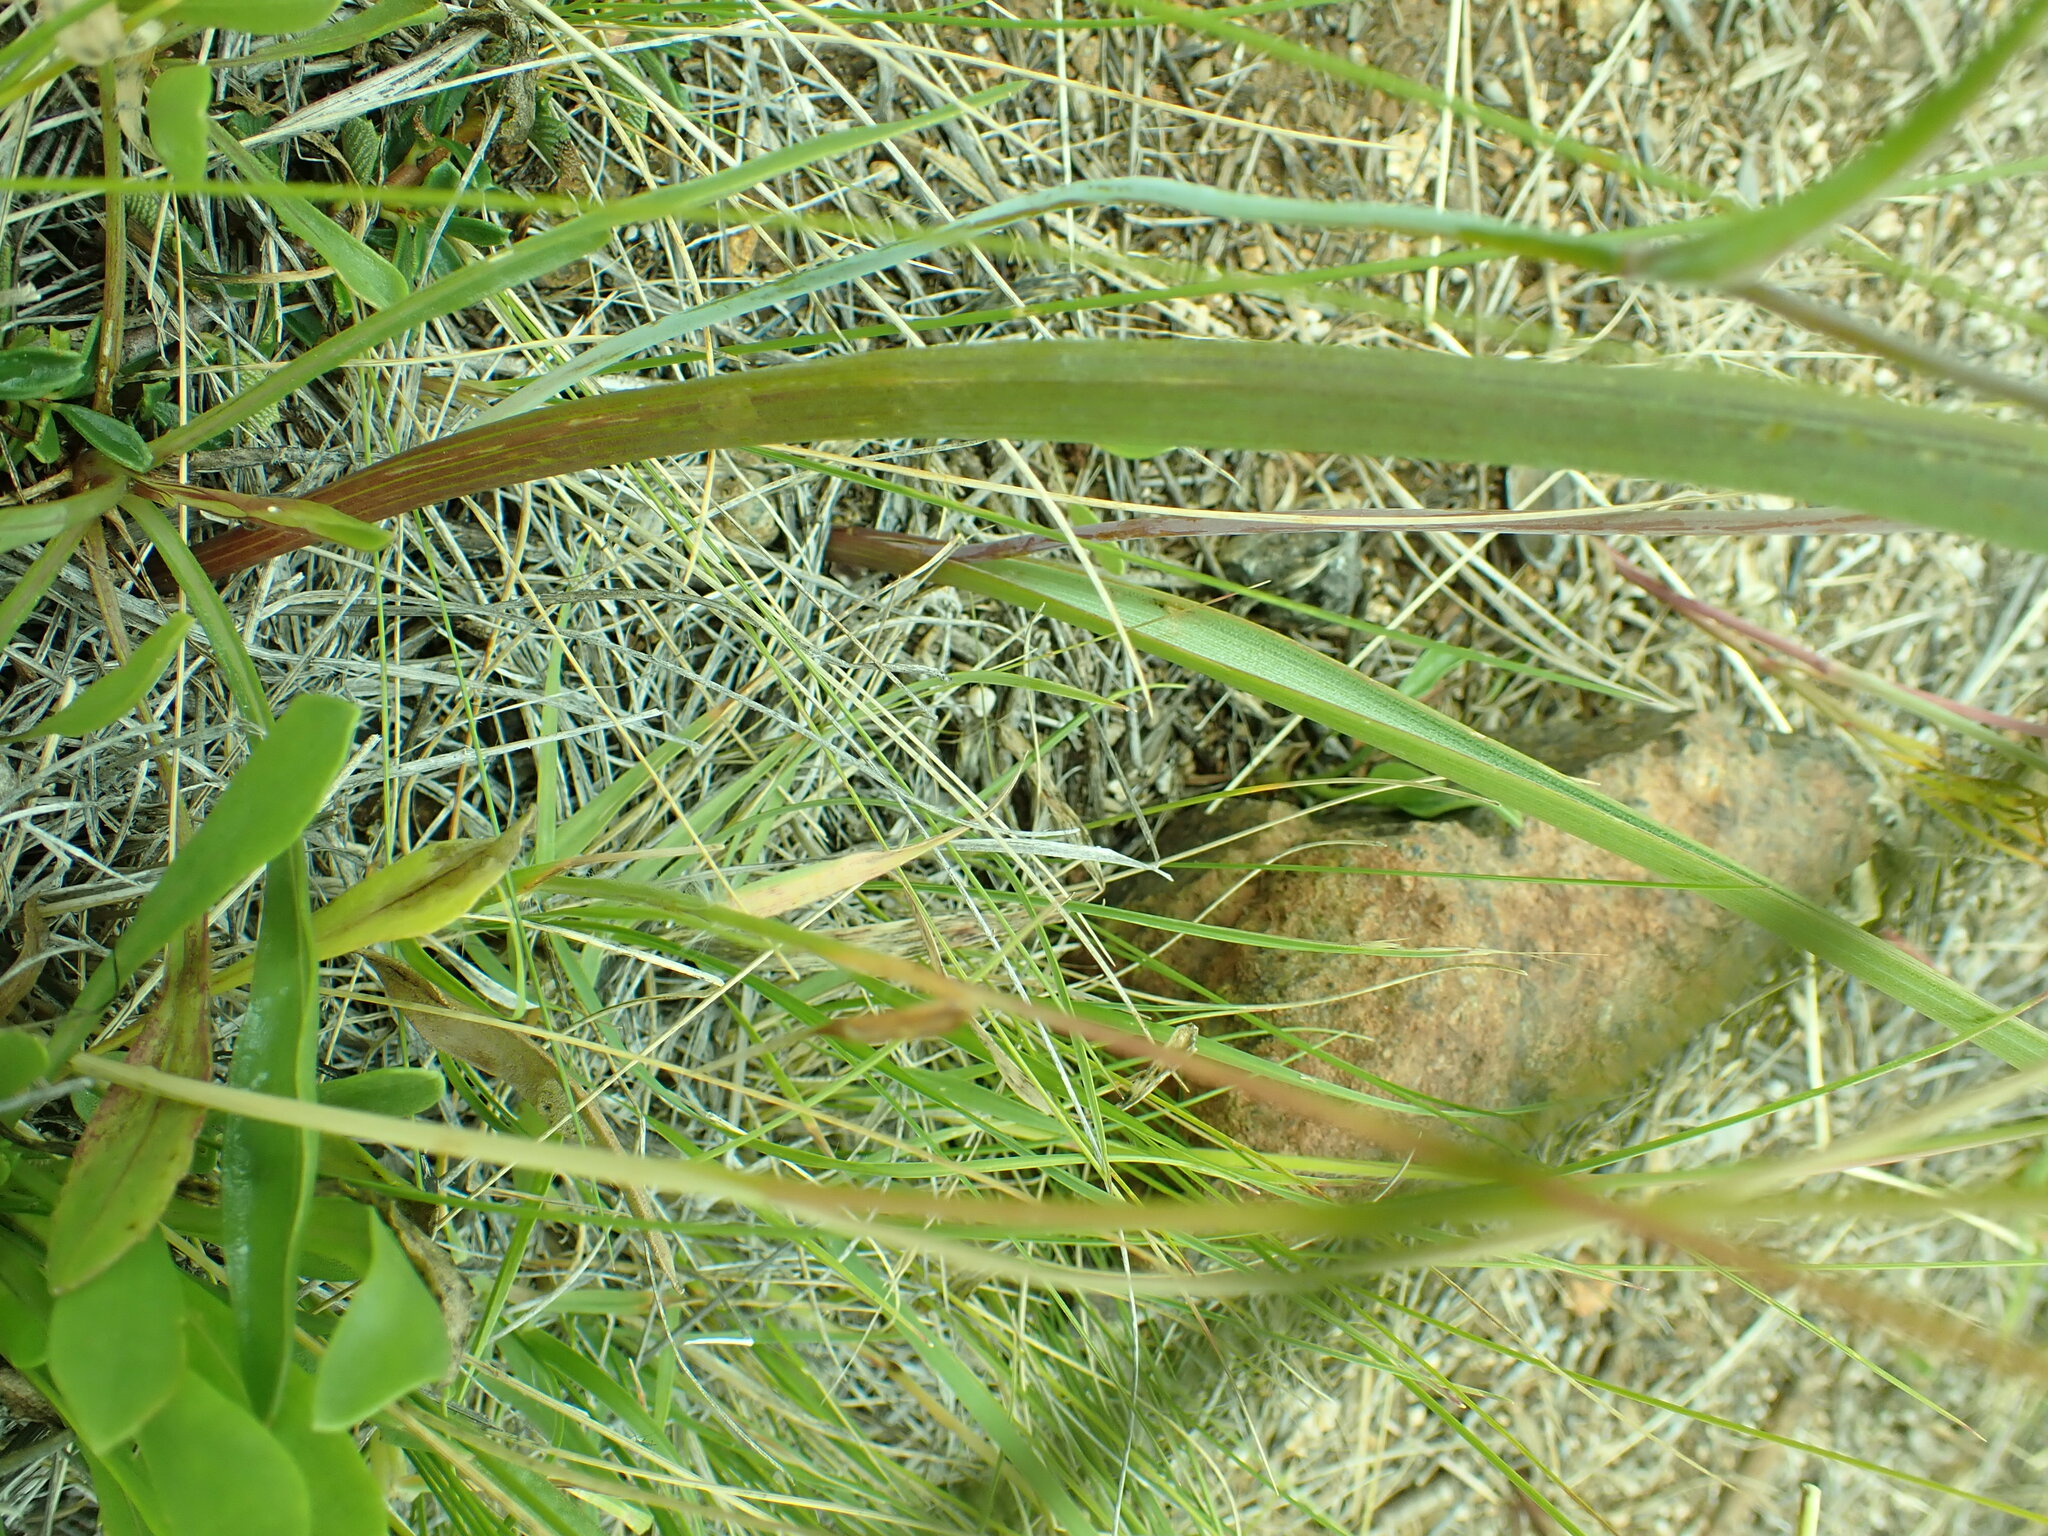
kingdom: Plantae
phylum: Tracheophyta
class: Liliopsida
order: Liliales
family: Liliaceae
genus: Calochortus
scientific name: Calochortus howellii
